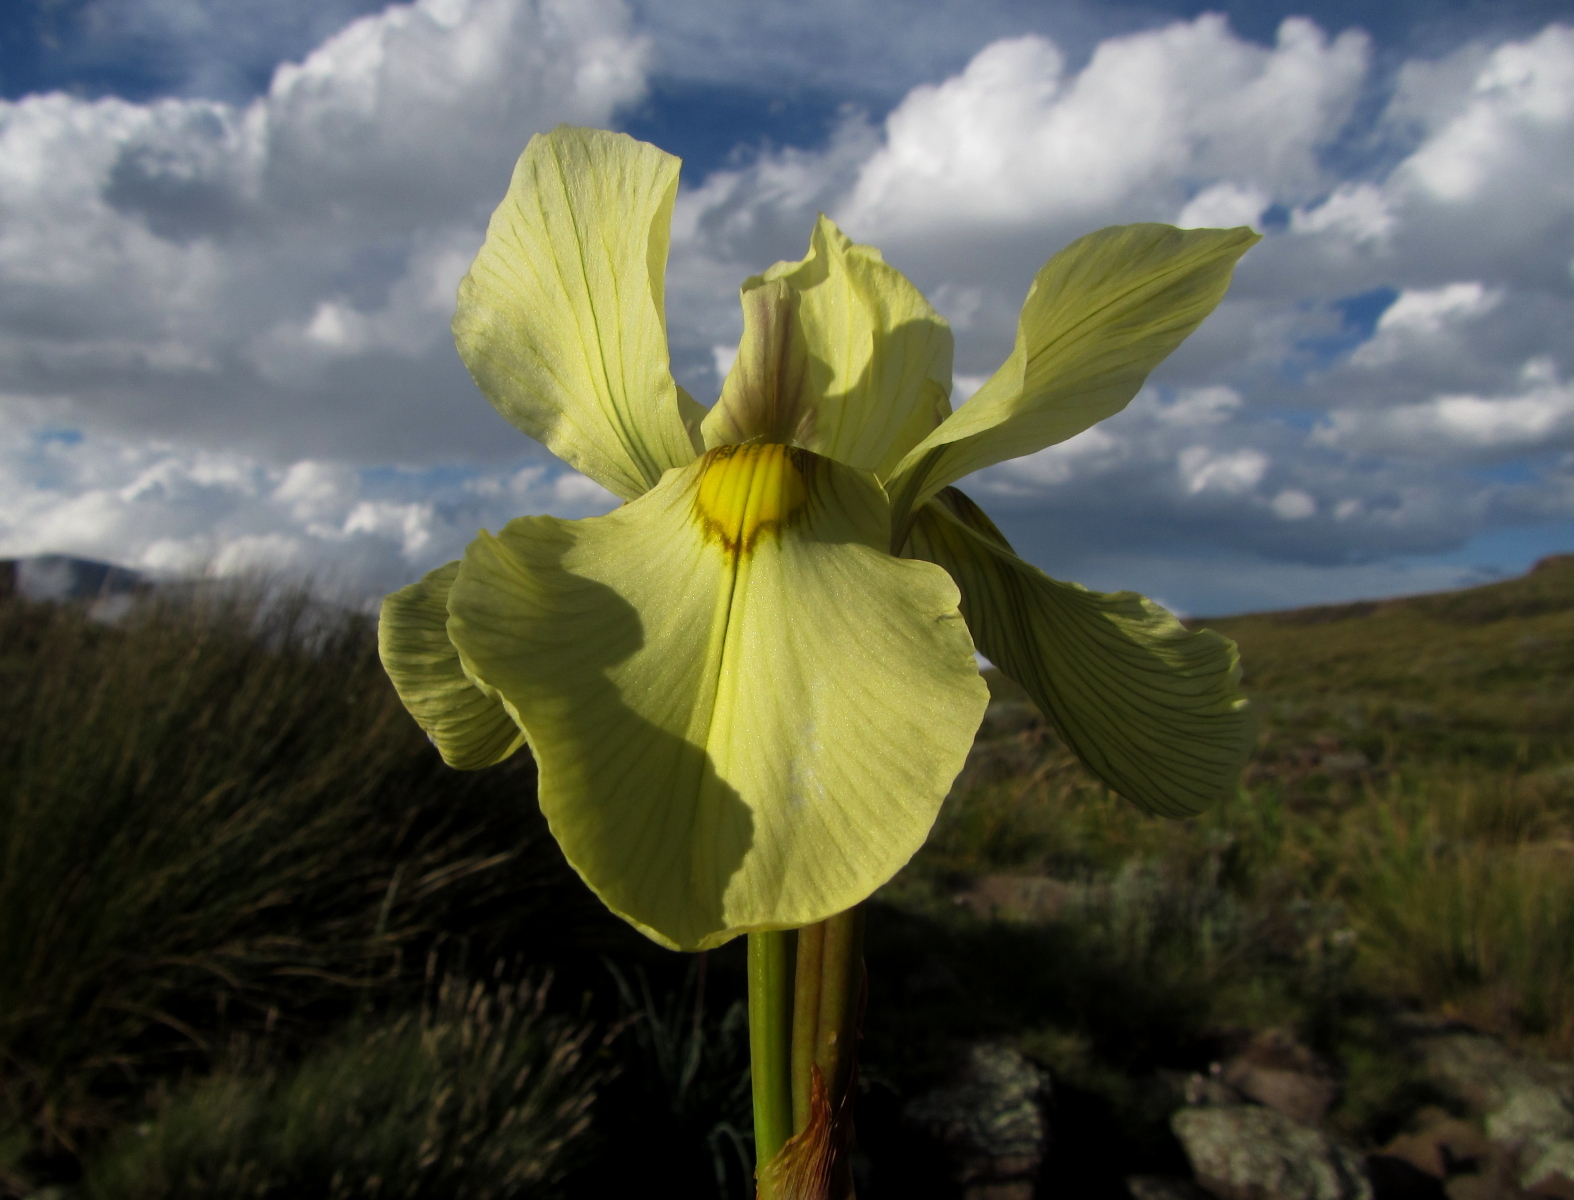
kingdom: Plantae
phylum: Tracheophyta
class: Liliopsida
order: Asparagales
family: Iridaceae
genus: Moraea
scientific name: Moraea alticola
